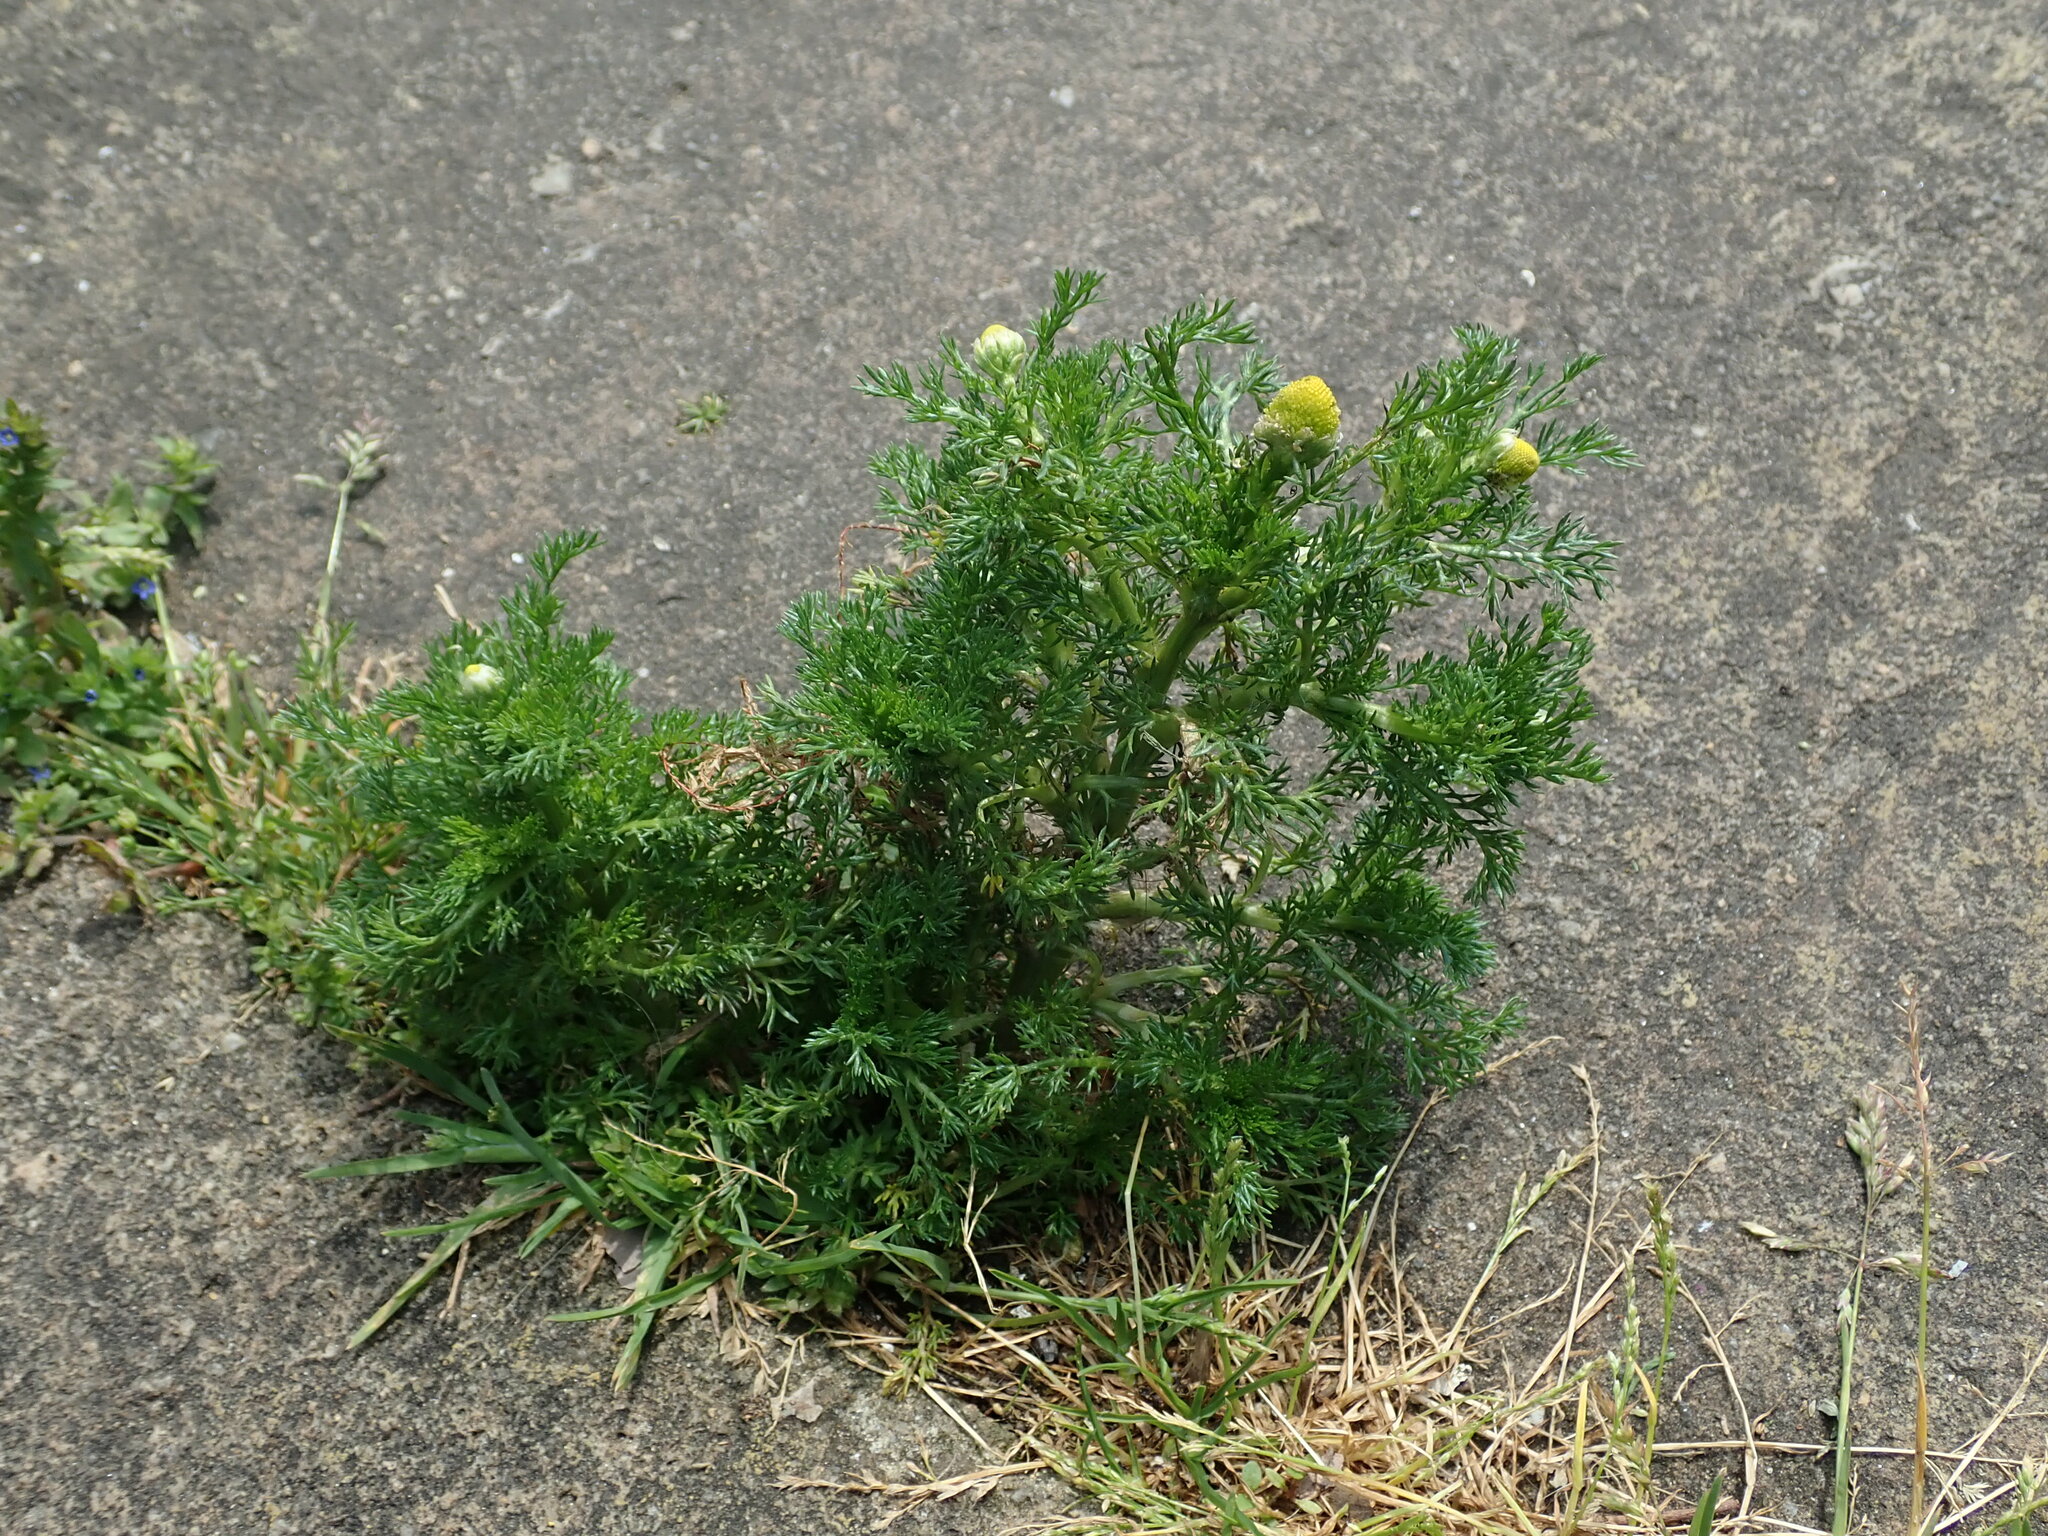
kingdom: Plantae
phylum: Tracheophyta
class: Magnoliopsida
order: Asterales
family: Asteraceae
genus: Matricaria
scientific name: Matricaria discoidea
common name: Disc mayweed
